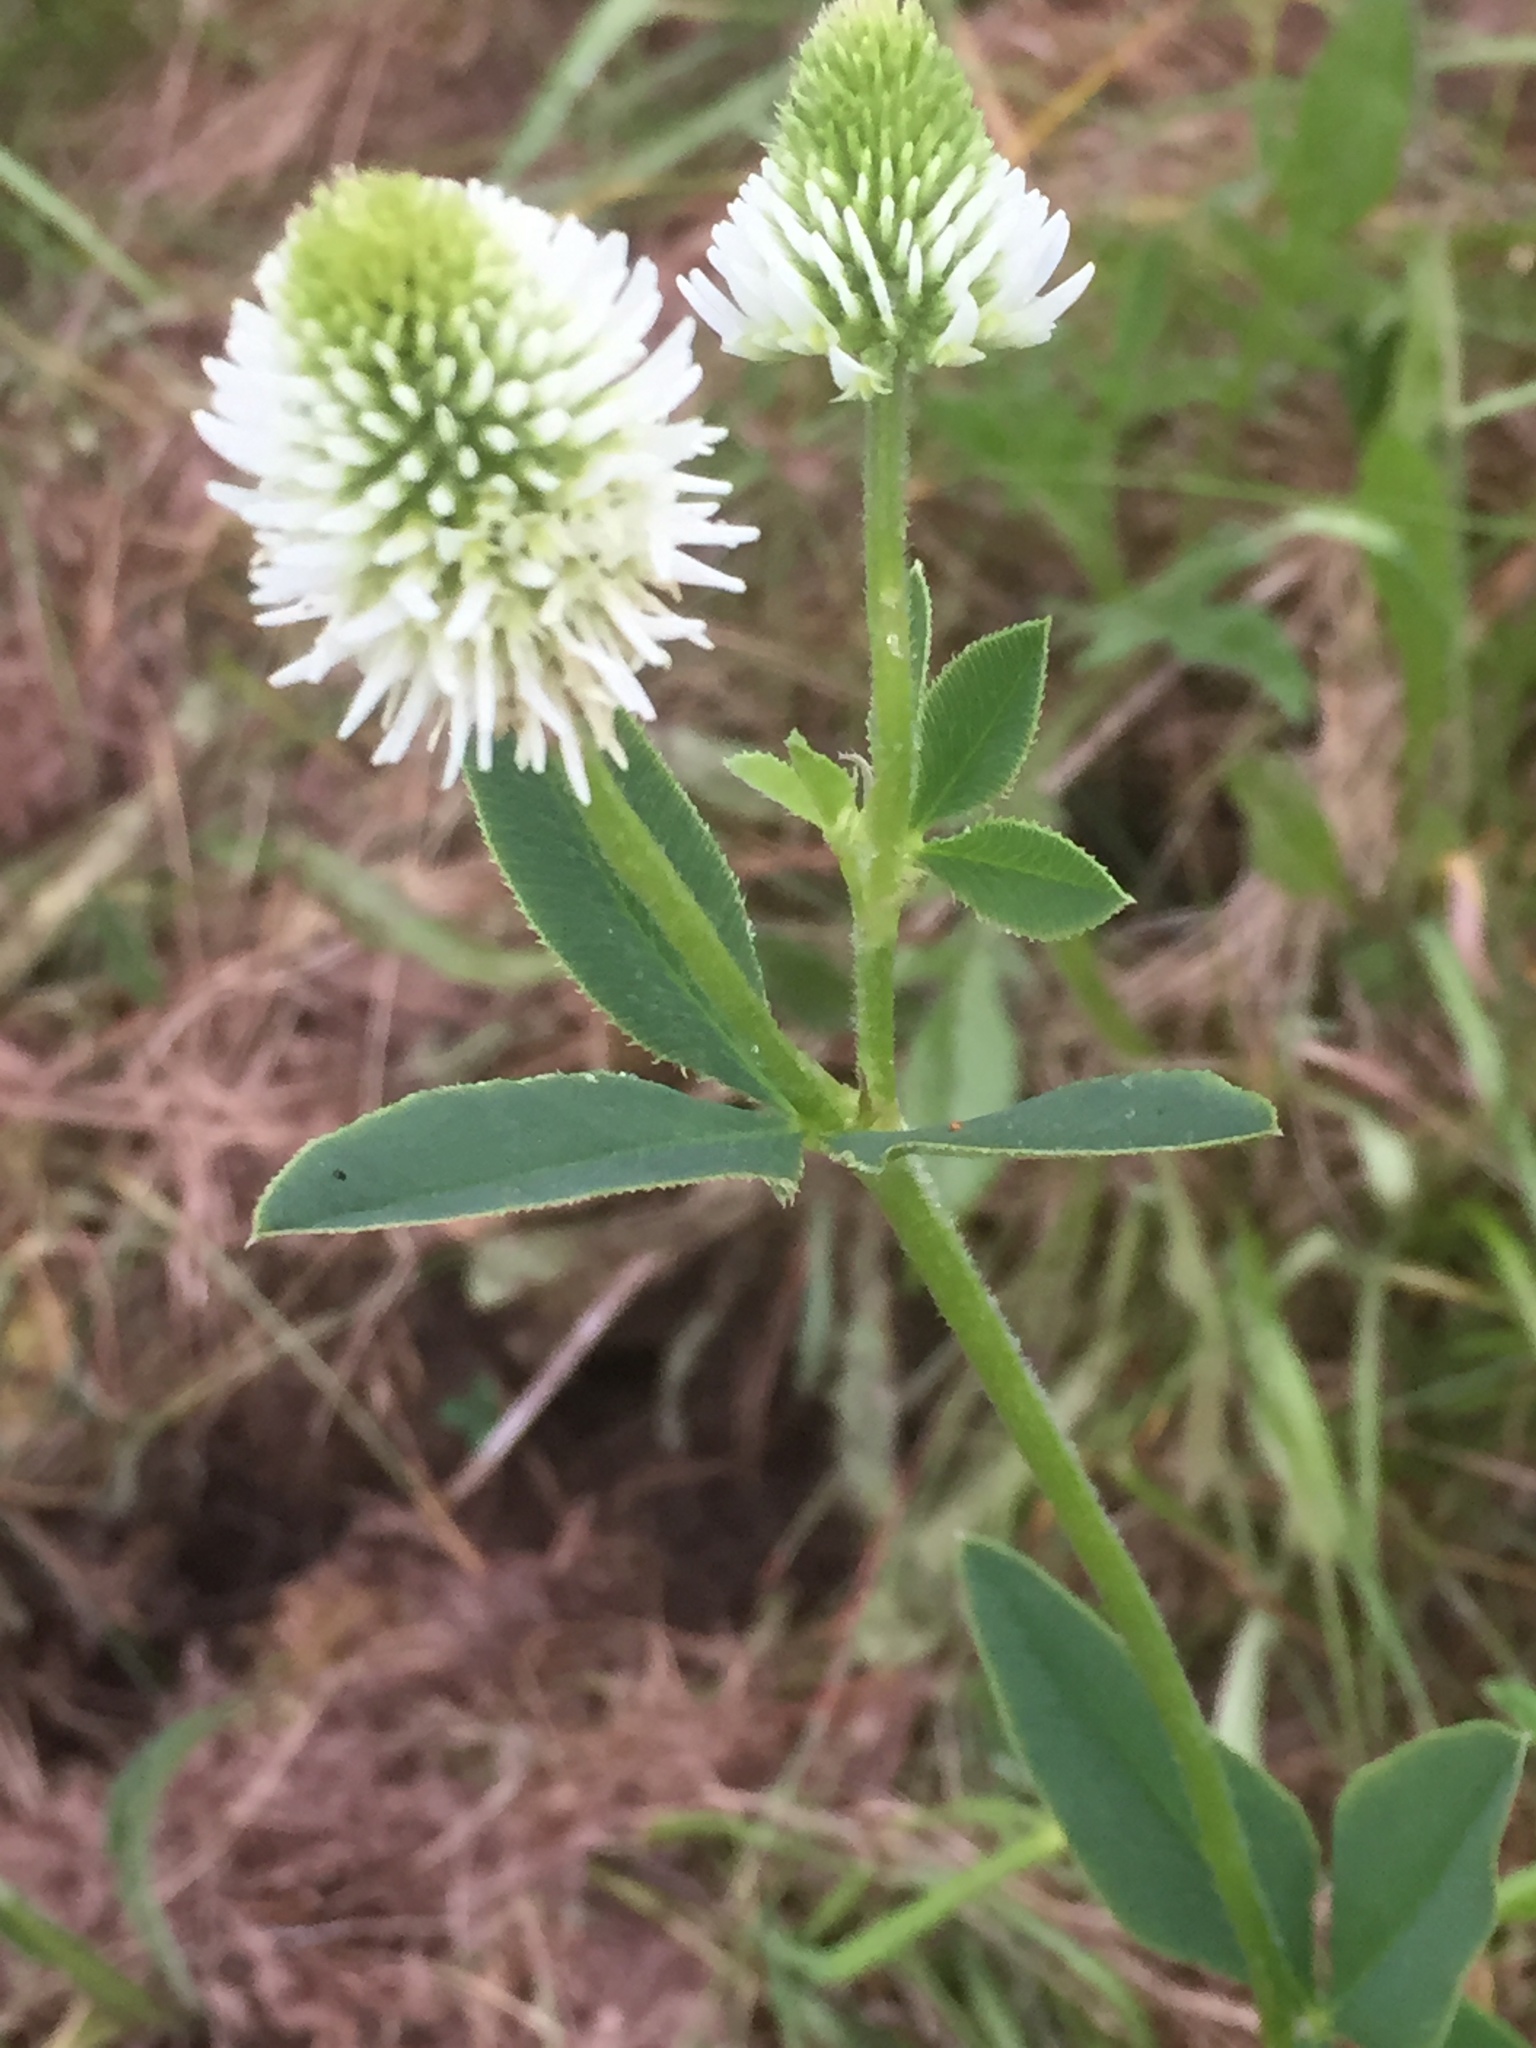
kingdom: Plantae
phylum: Tracheophyta
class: Magnoliopsida
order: Fabales
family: Fabaceae
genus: Trifolium
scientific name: Trifolium montanum
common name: Mountain clover
